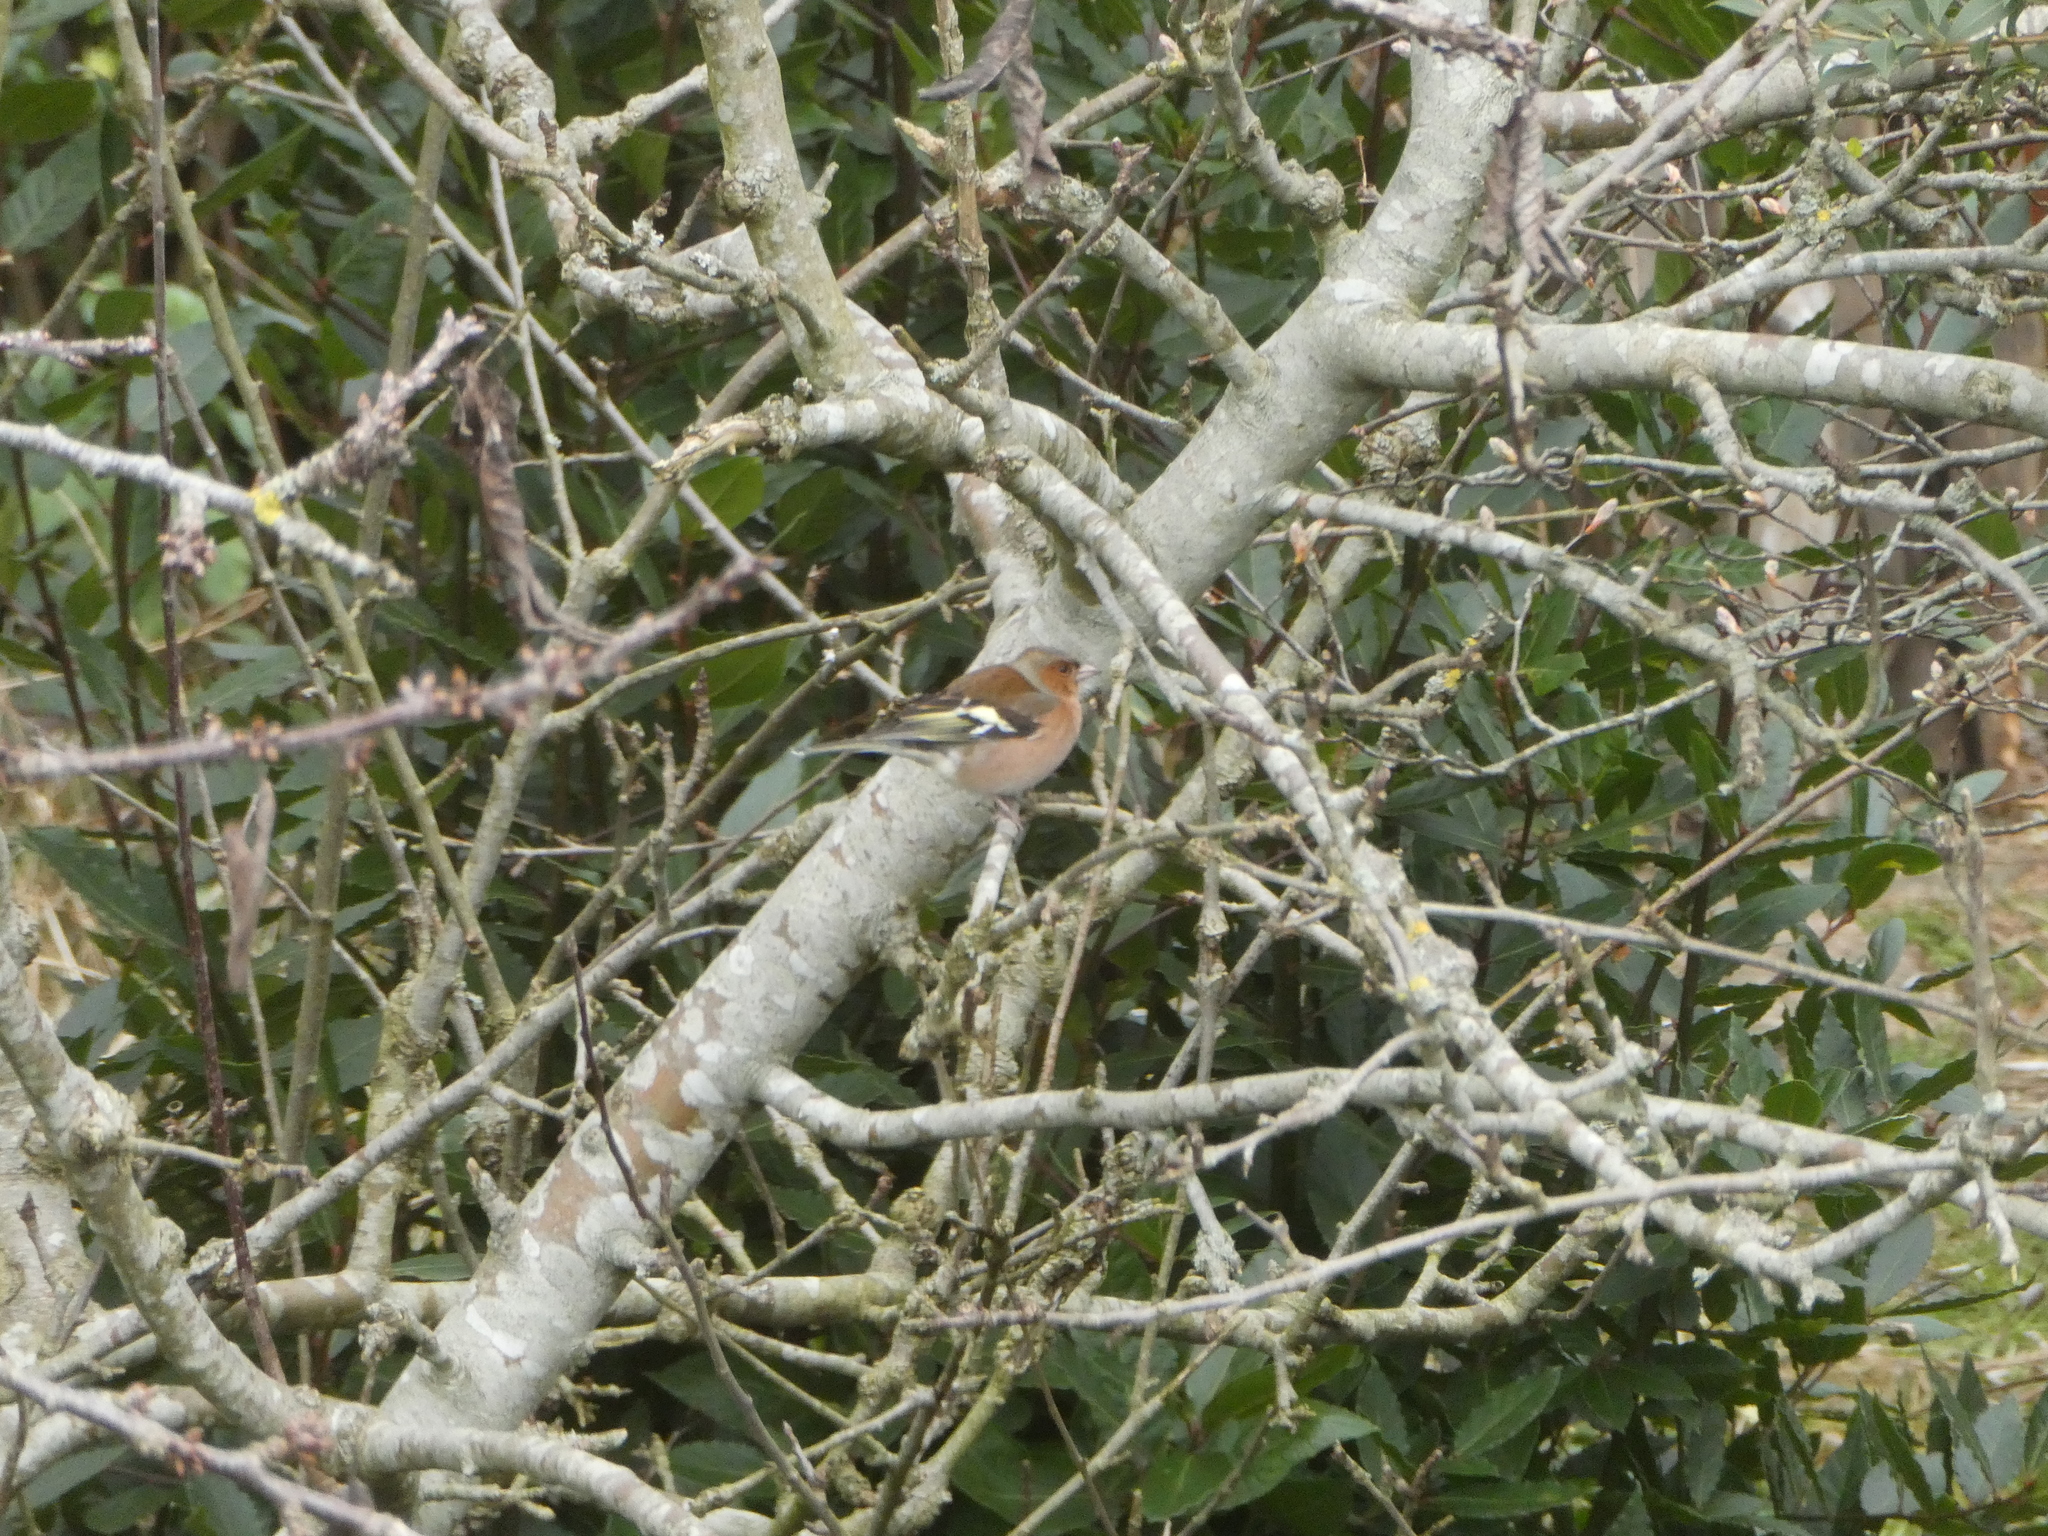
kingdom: Animalia
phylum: Chordata
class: Aves
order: Passeriformes
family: Fringillidae
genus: Fringilla
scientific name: Fringilla coelebs
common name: Common chaffinch
